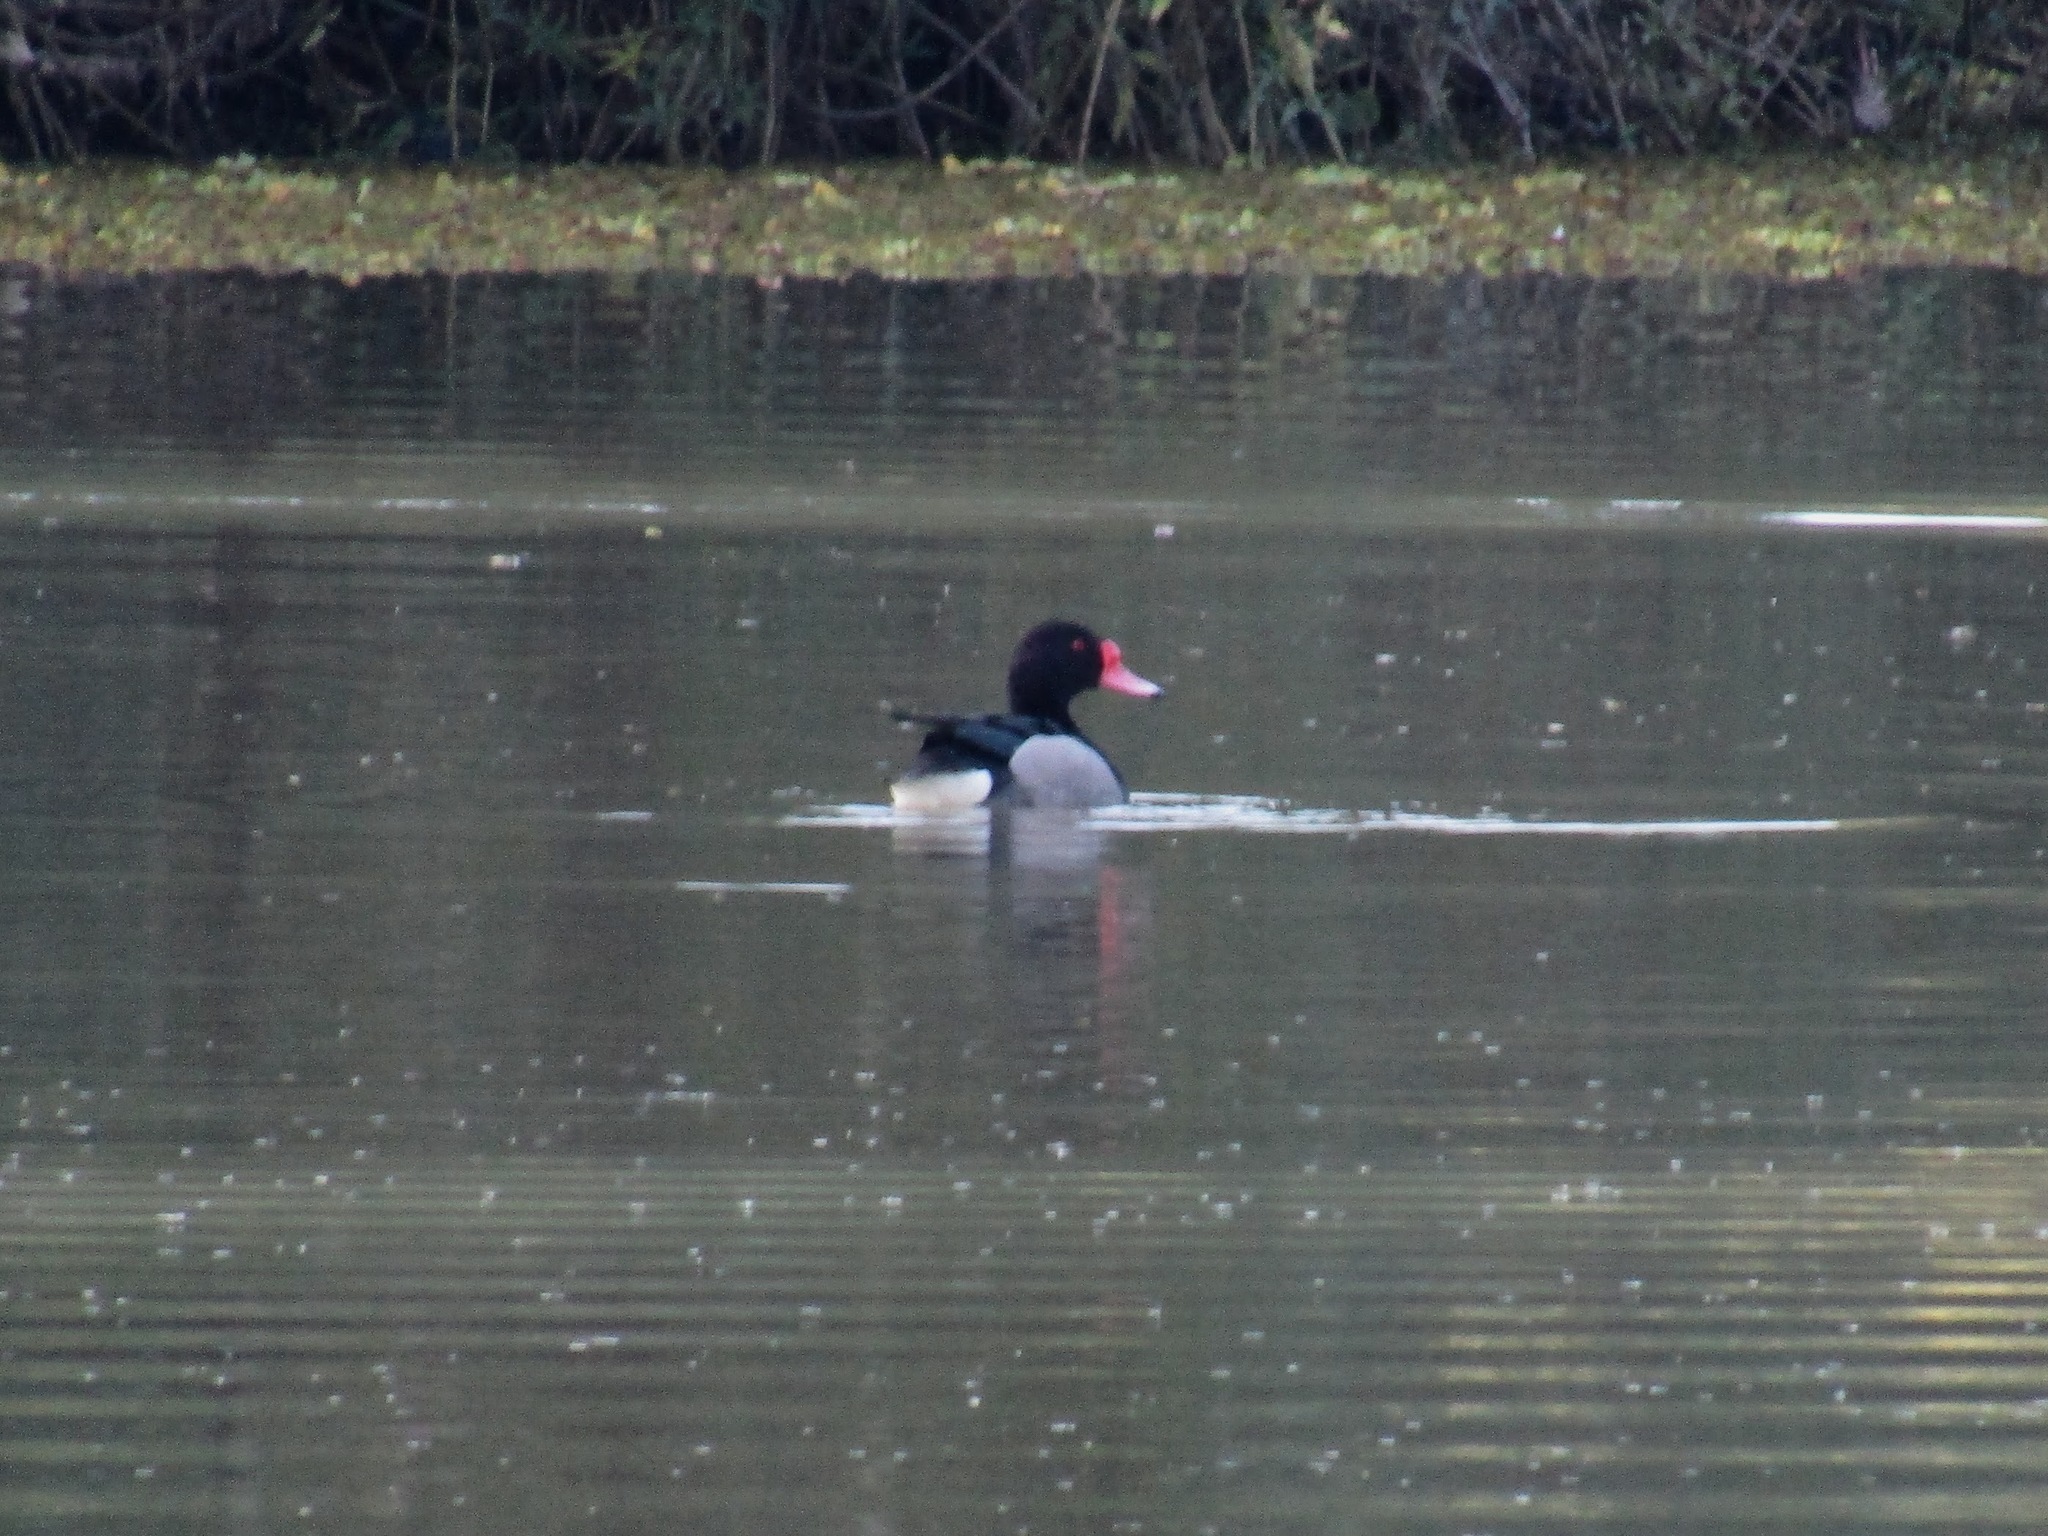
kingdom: Animalia
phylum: Chordata
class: Aves
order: Anseriformes
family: Anatidae
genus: Netta
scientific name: Netta peposaca
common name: Rosy-billed pochard
